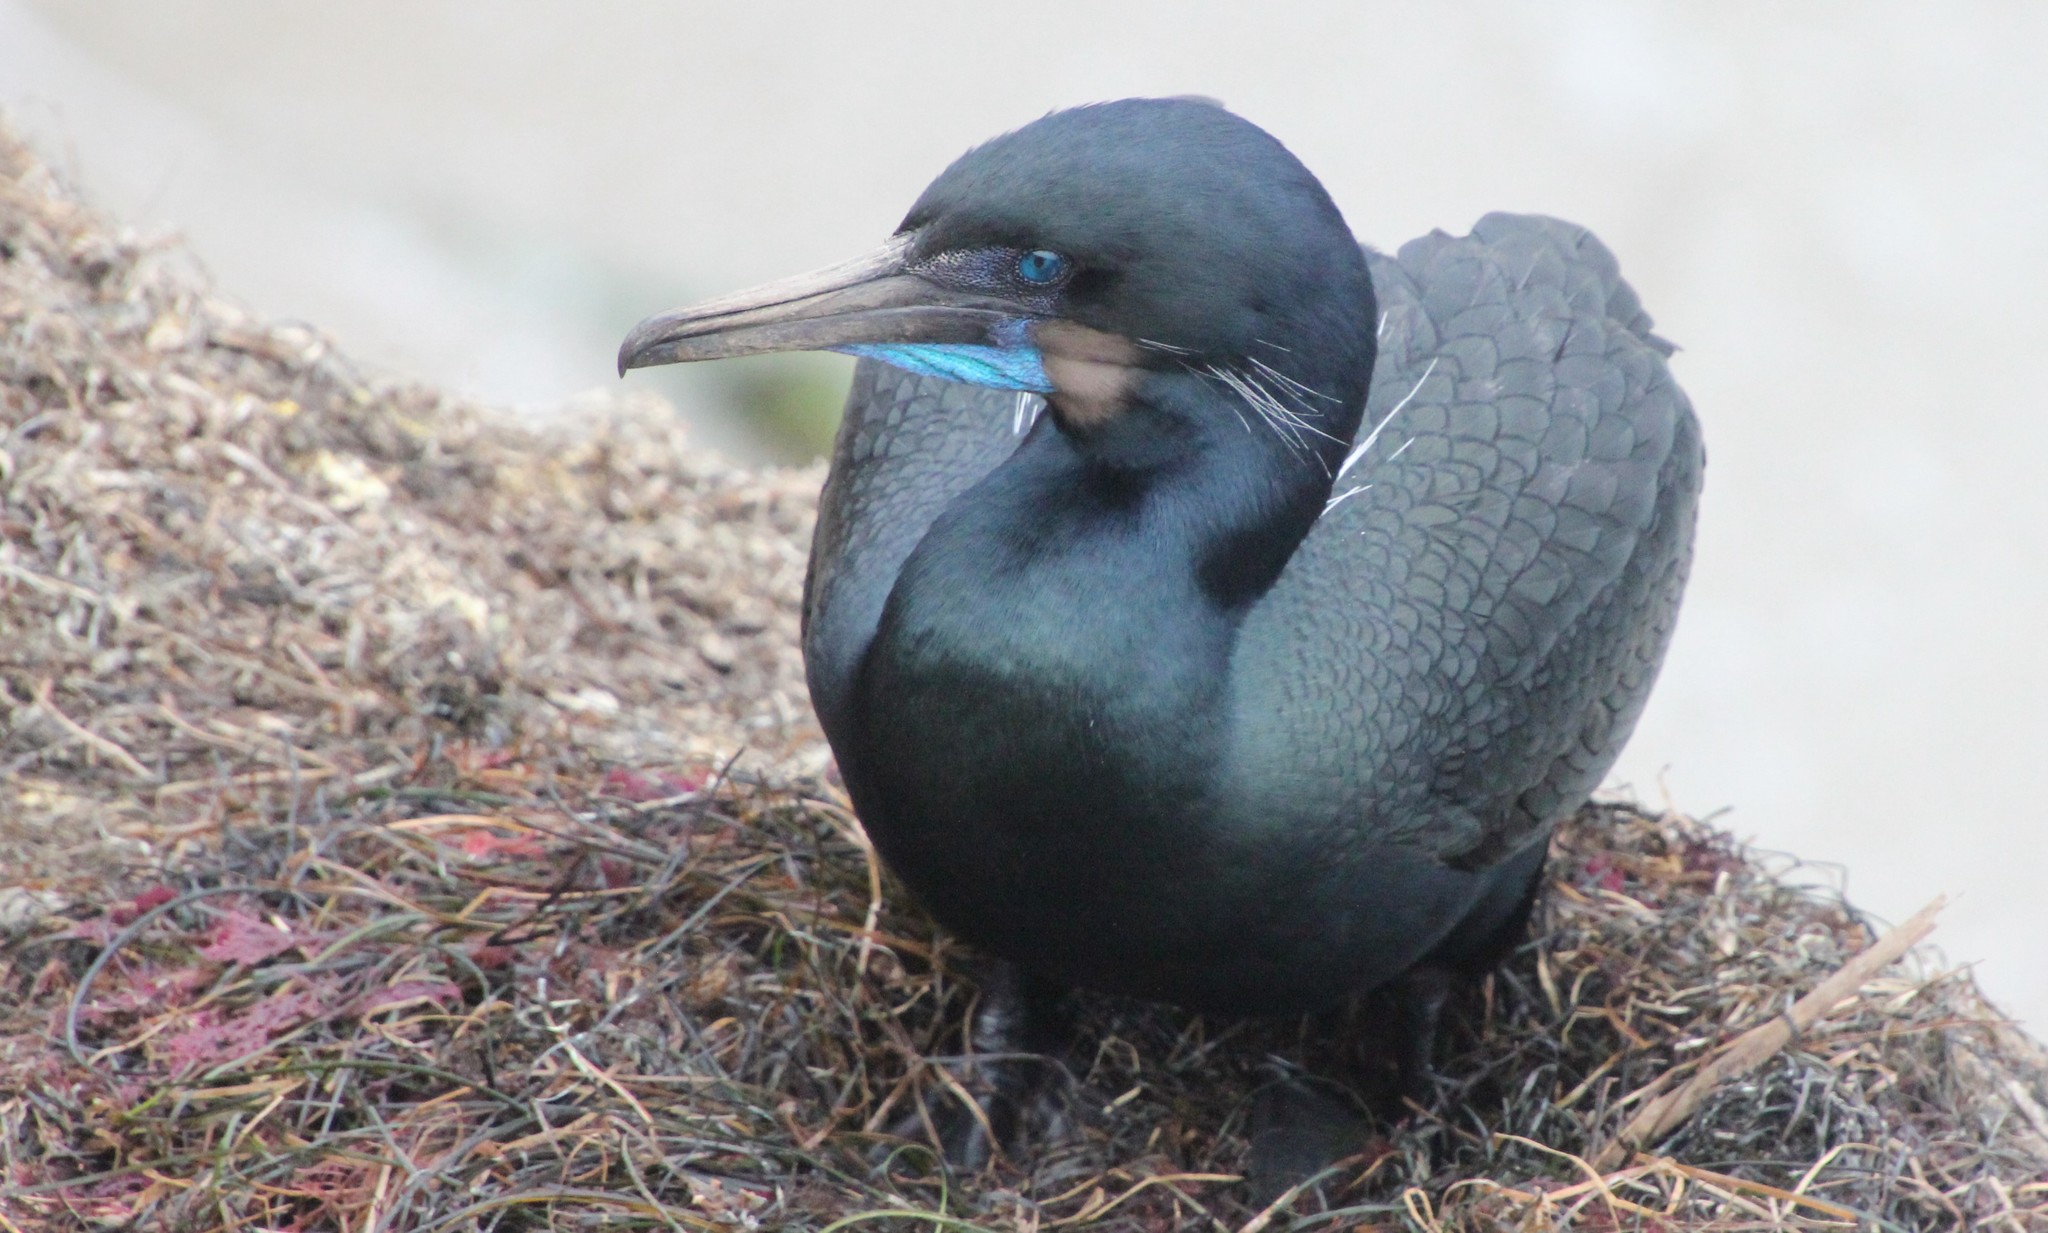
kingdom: Animalia
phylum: Chordata
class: Aves
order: Suliformes
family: Phalacrocoracidae
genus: Urile
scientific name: Urile penicillatus
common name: Brandt's cormorant
